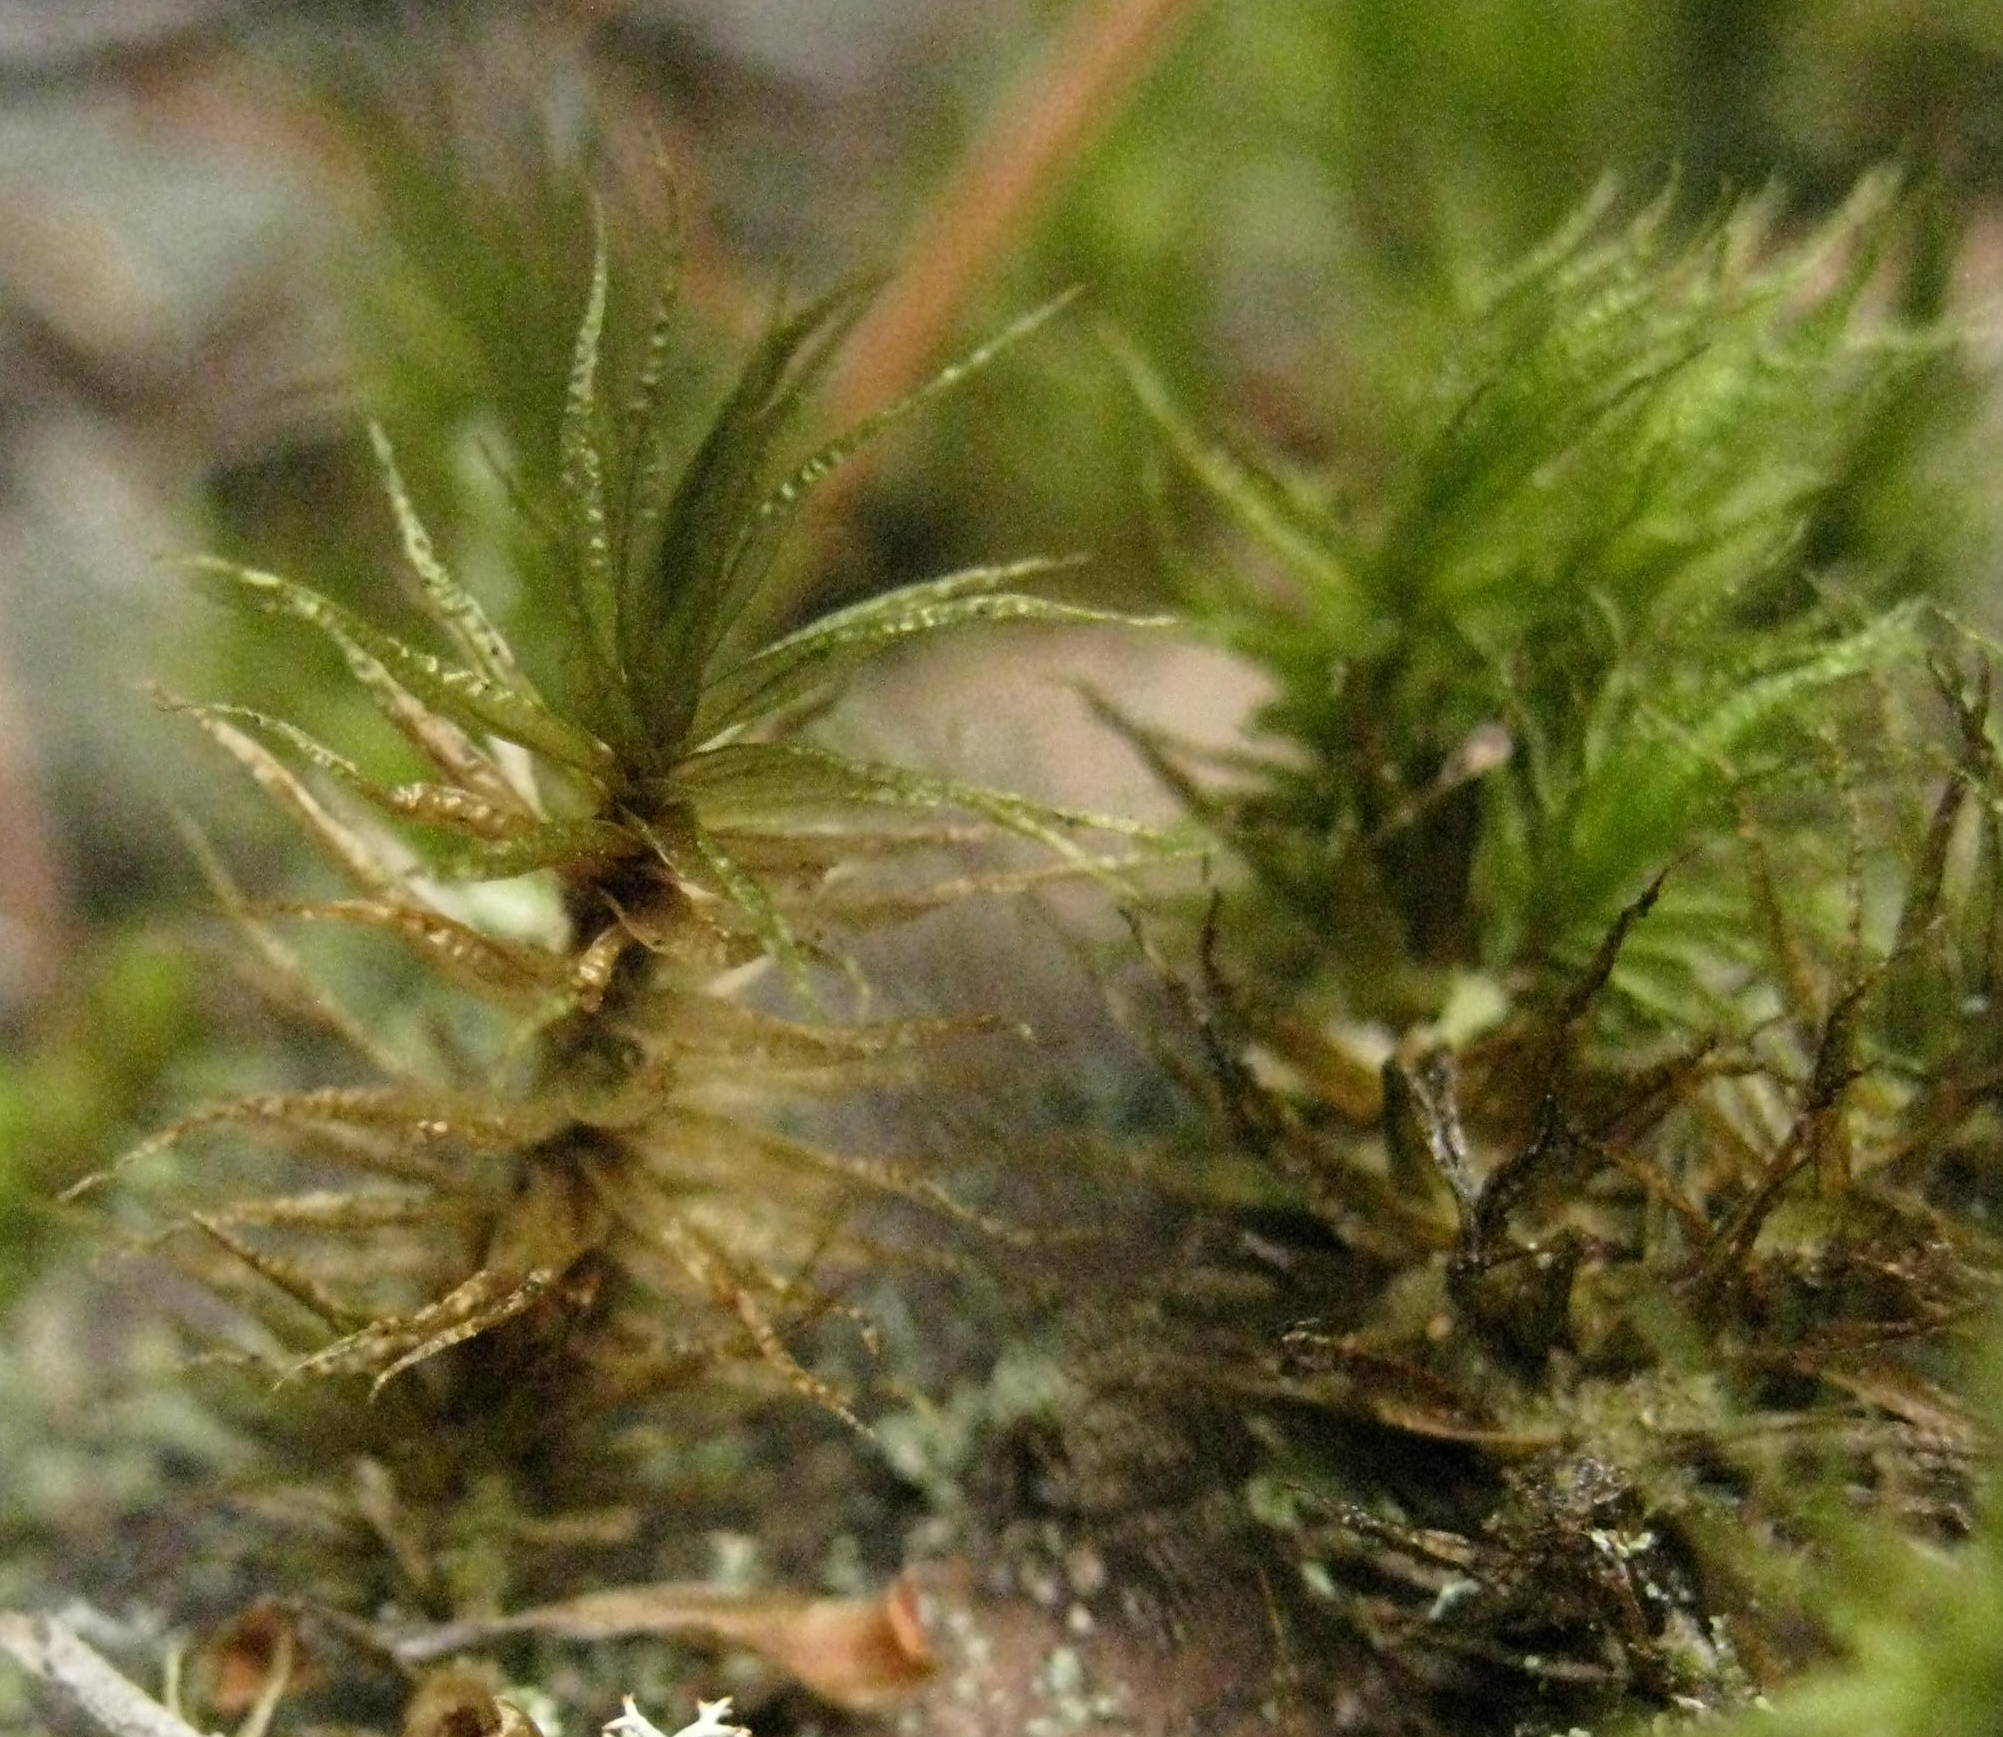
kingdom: Plantae
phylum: Bryophyta
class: Bryopsida
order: Dicranales
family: Dicranaceae
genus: Dicranum
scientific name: Dicranum polysetum
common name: Rugose fork-moss
